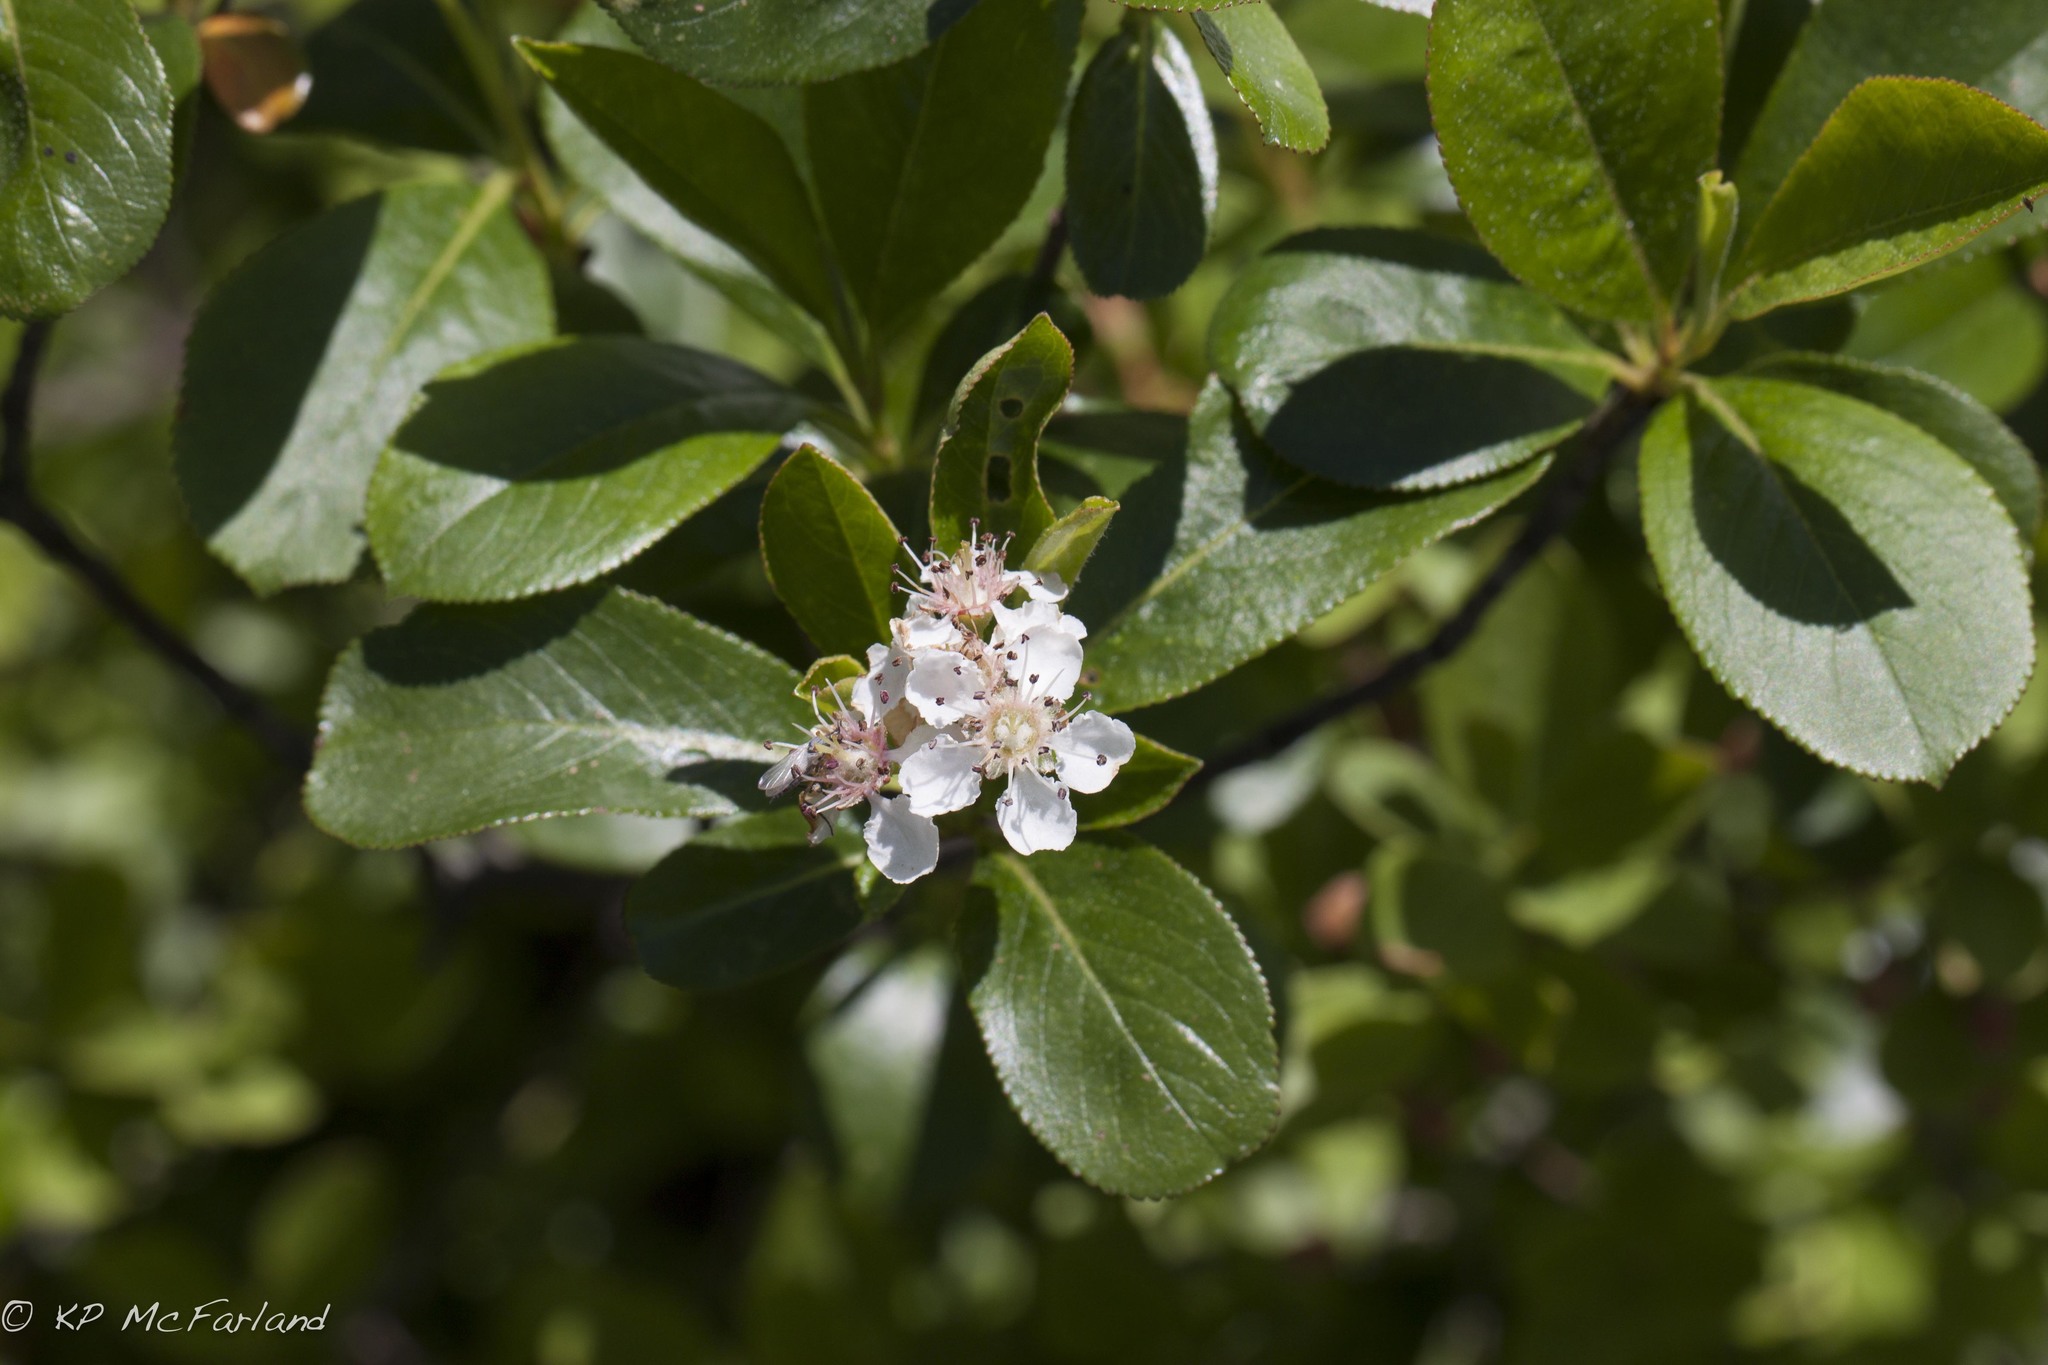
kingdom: Plantae
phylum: Tracheophyta
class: Magnoliopsida
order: Rosales
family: Rosaceae
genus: Aronia
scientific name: Aronia melanocarpa
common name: Black chokeberry
